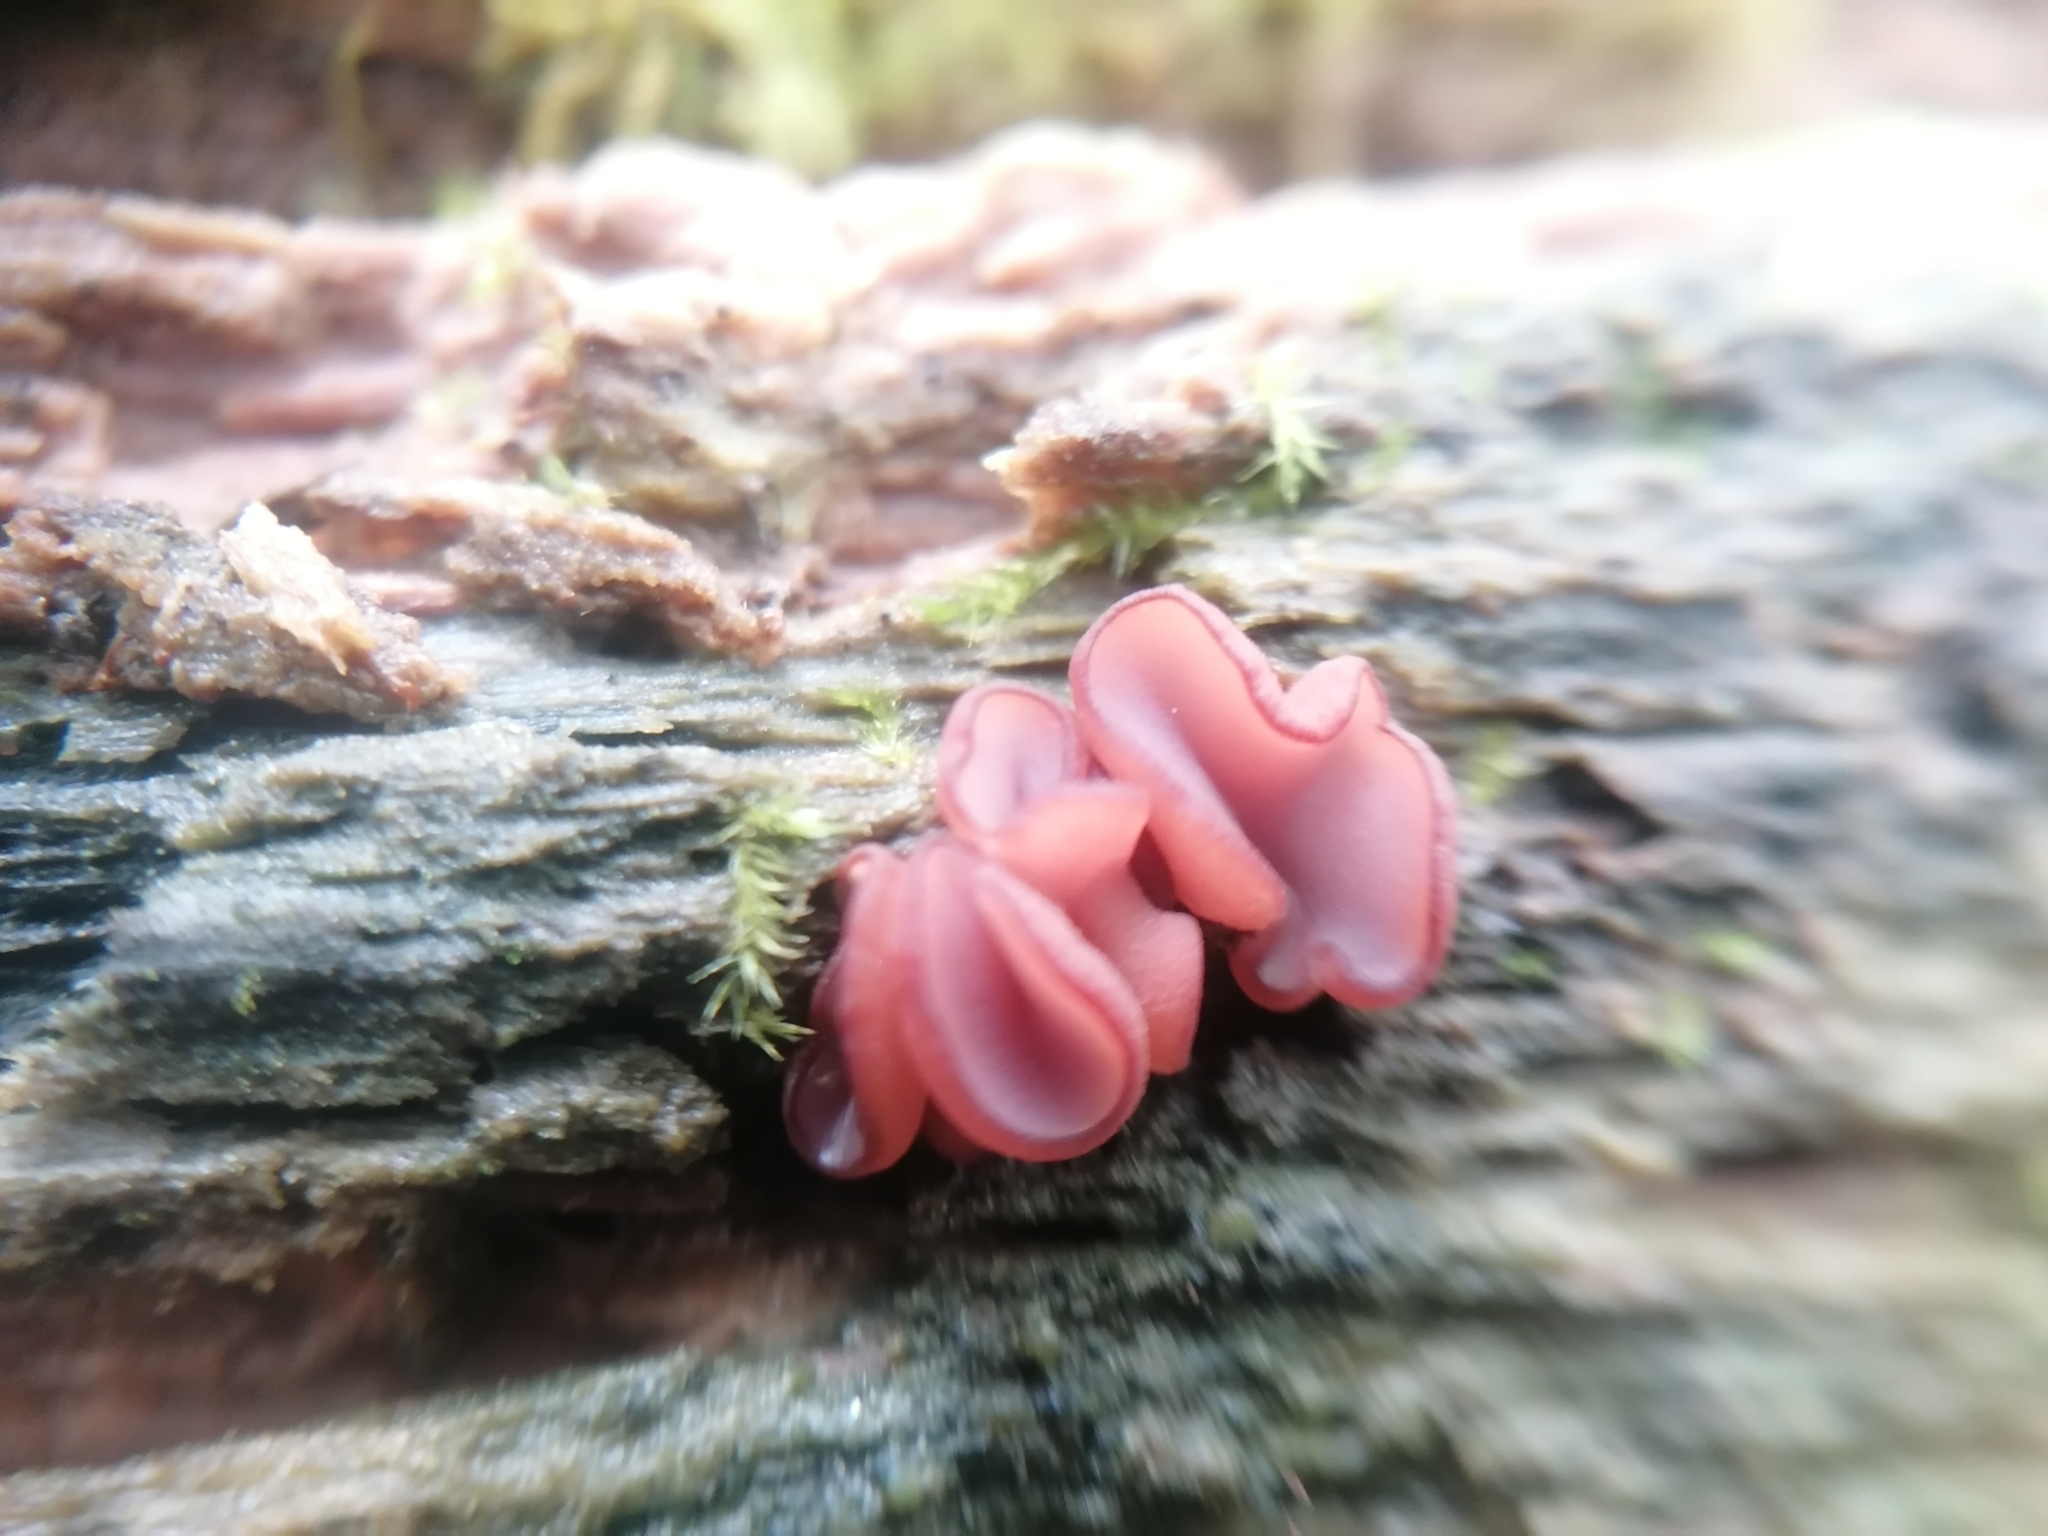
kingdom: Fungi
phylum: Ascomycota
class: Leotiomycetes
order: Helotiales
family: Gelatinodiscaceae
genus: Ascocoryne
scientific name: Ascocoryne sarcoides
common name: Purple jellydisc
